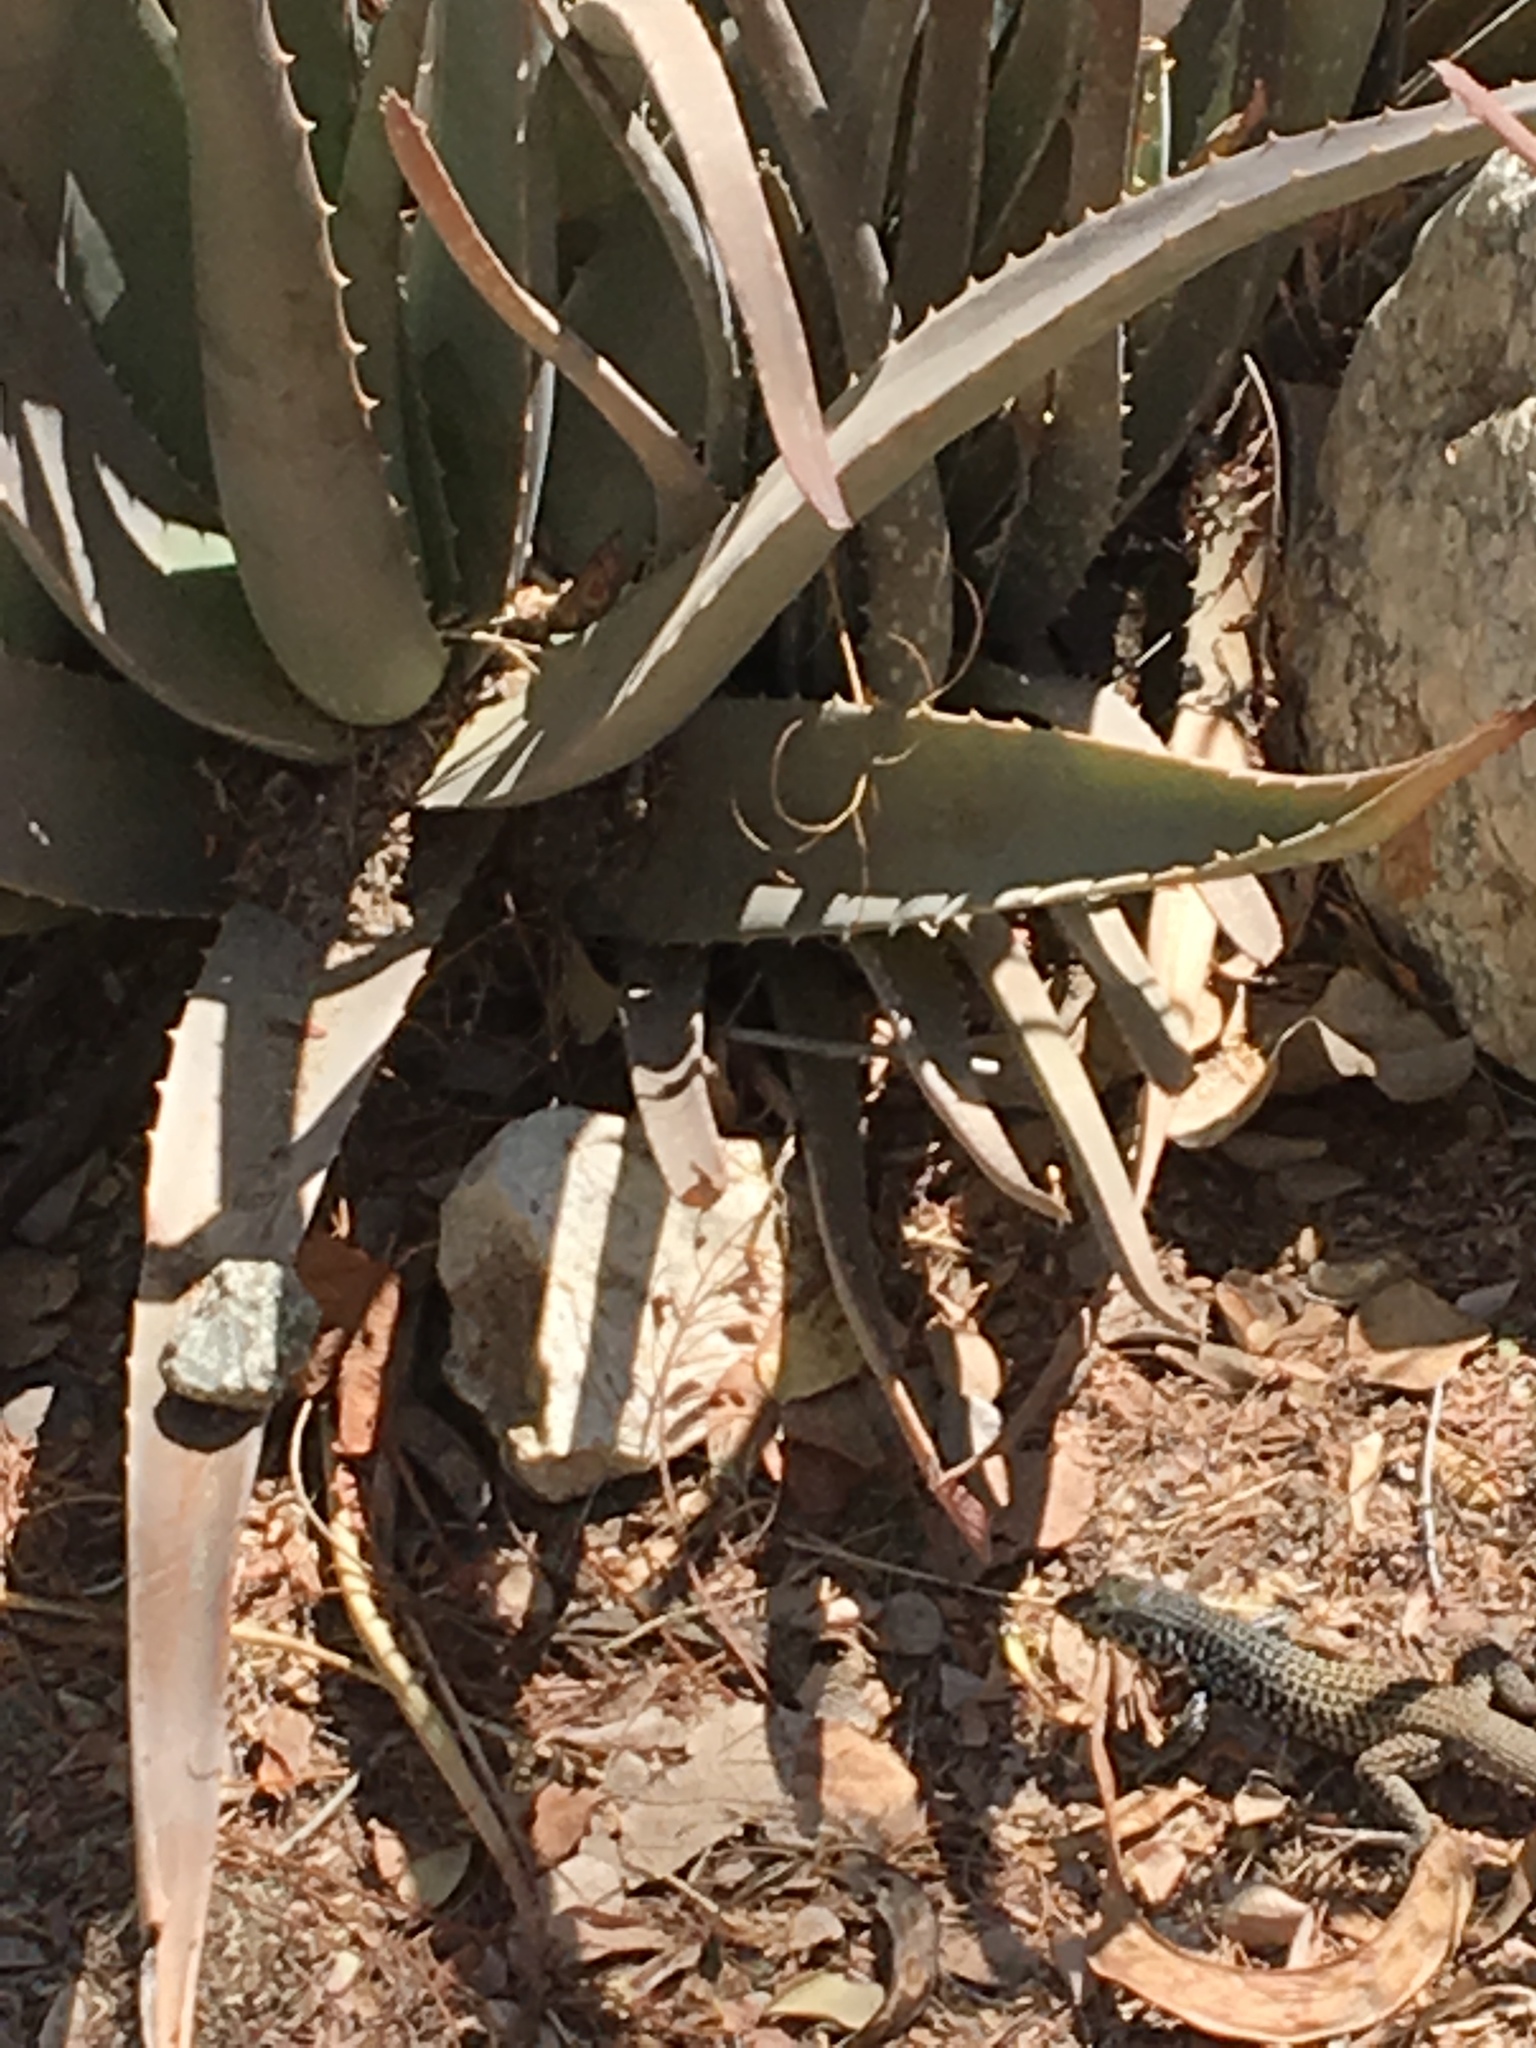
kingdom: Animalia
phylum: Chordata
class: Squamata
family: Teiidae
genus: Aspidoscelis
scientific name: Aspidoscelis tigris
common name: Tiger whiptail
